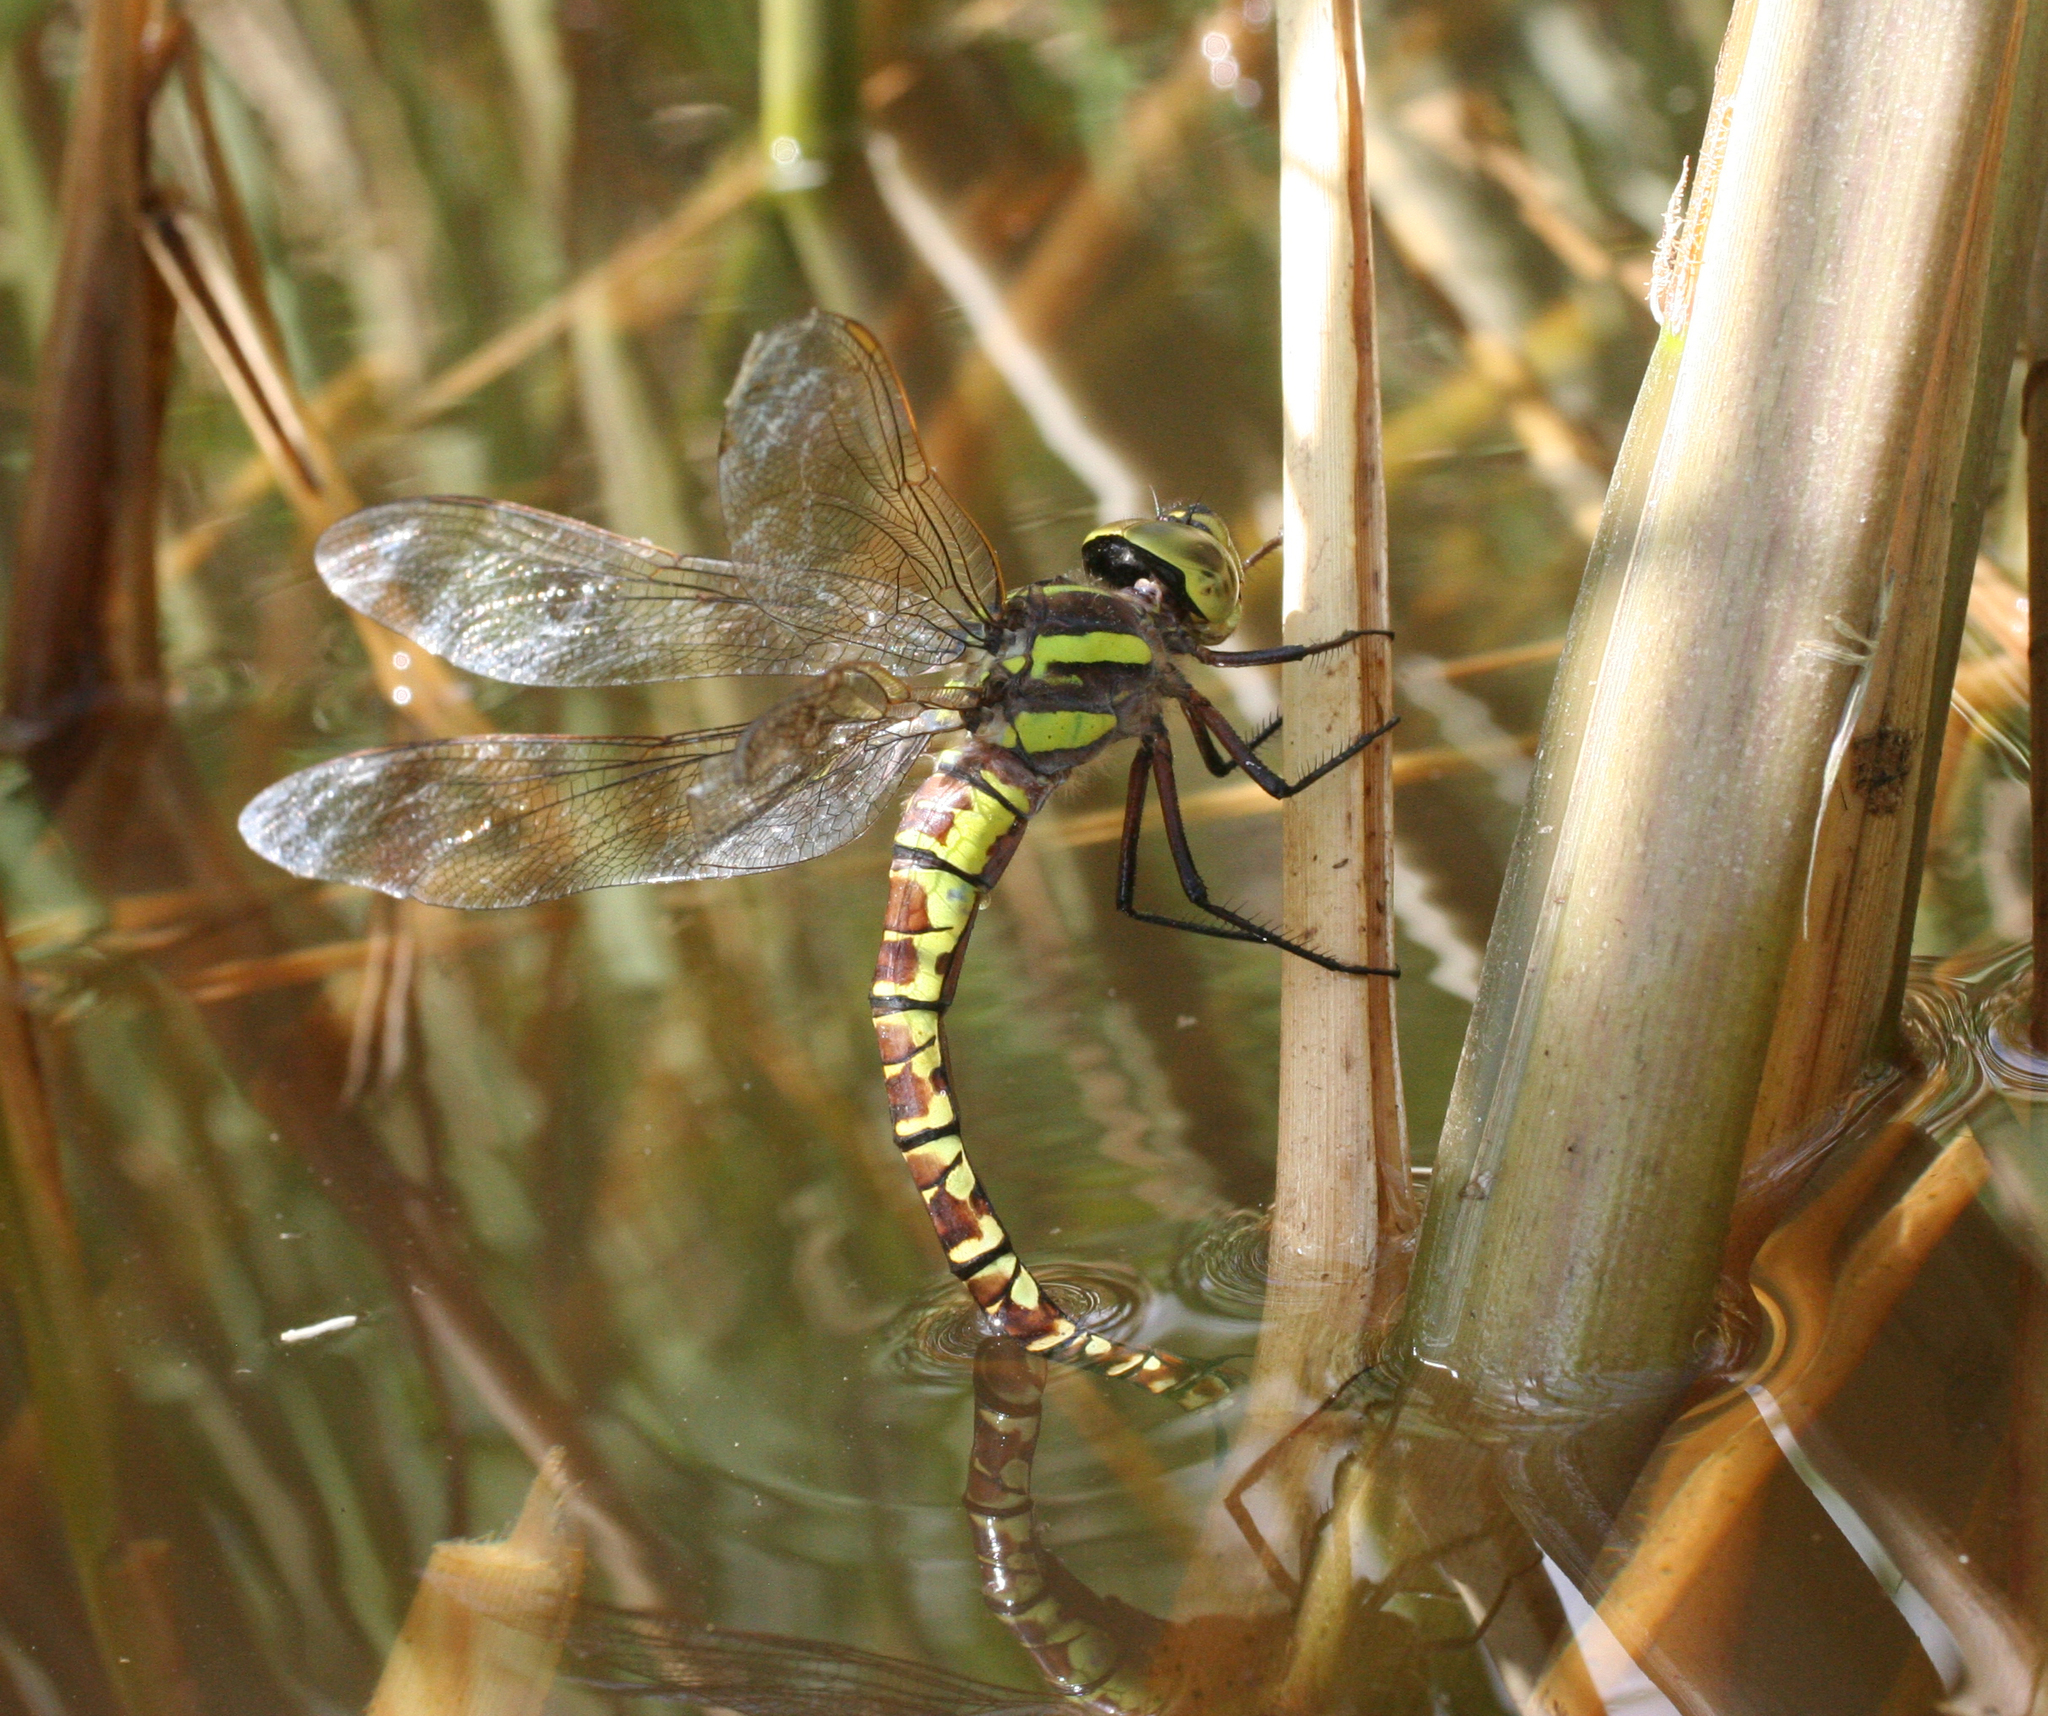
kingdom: Animalia
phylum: Arthropoda
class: Insecta
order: Odonata
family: Aeshnidae
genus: Aeshna
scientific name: Aeshna crenata
